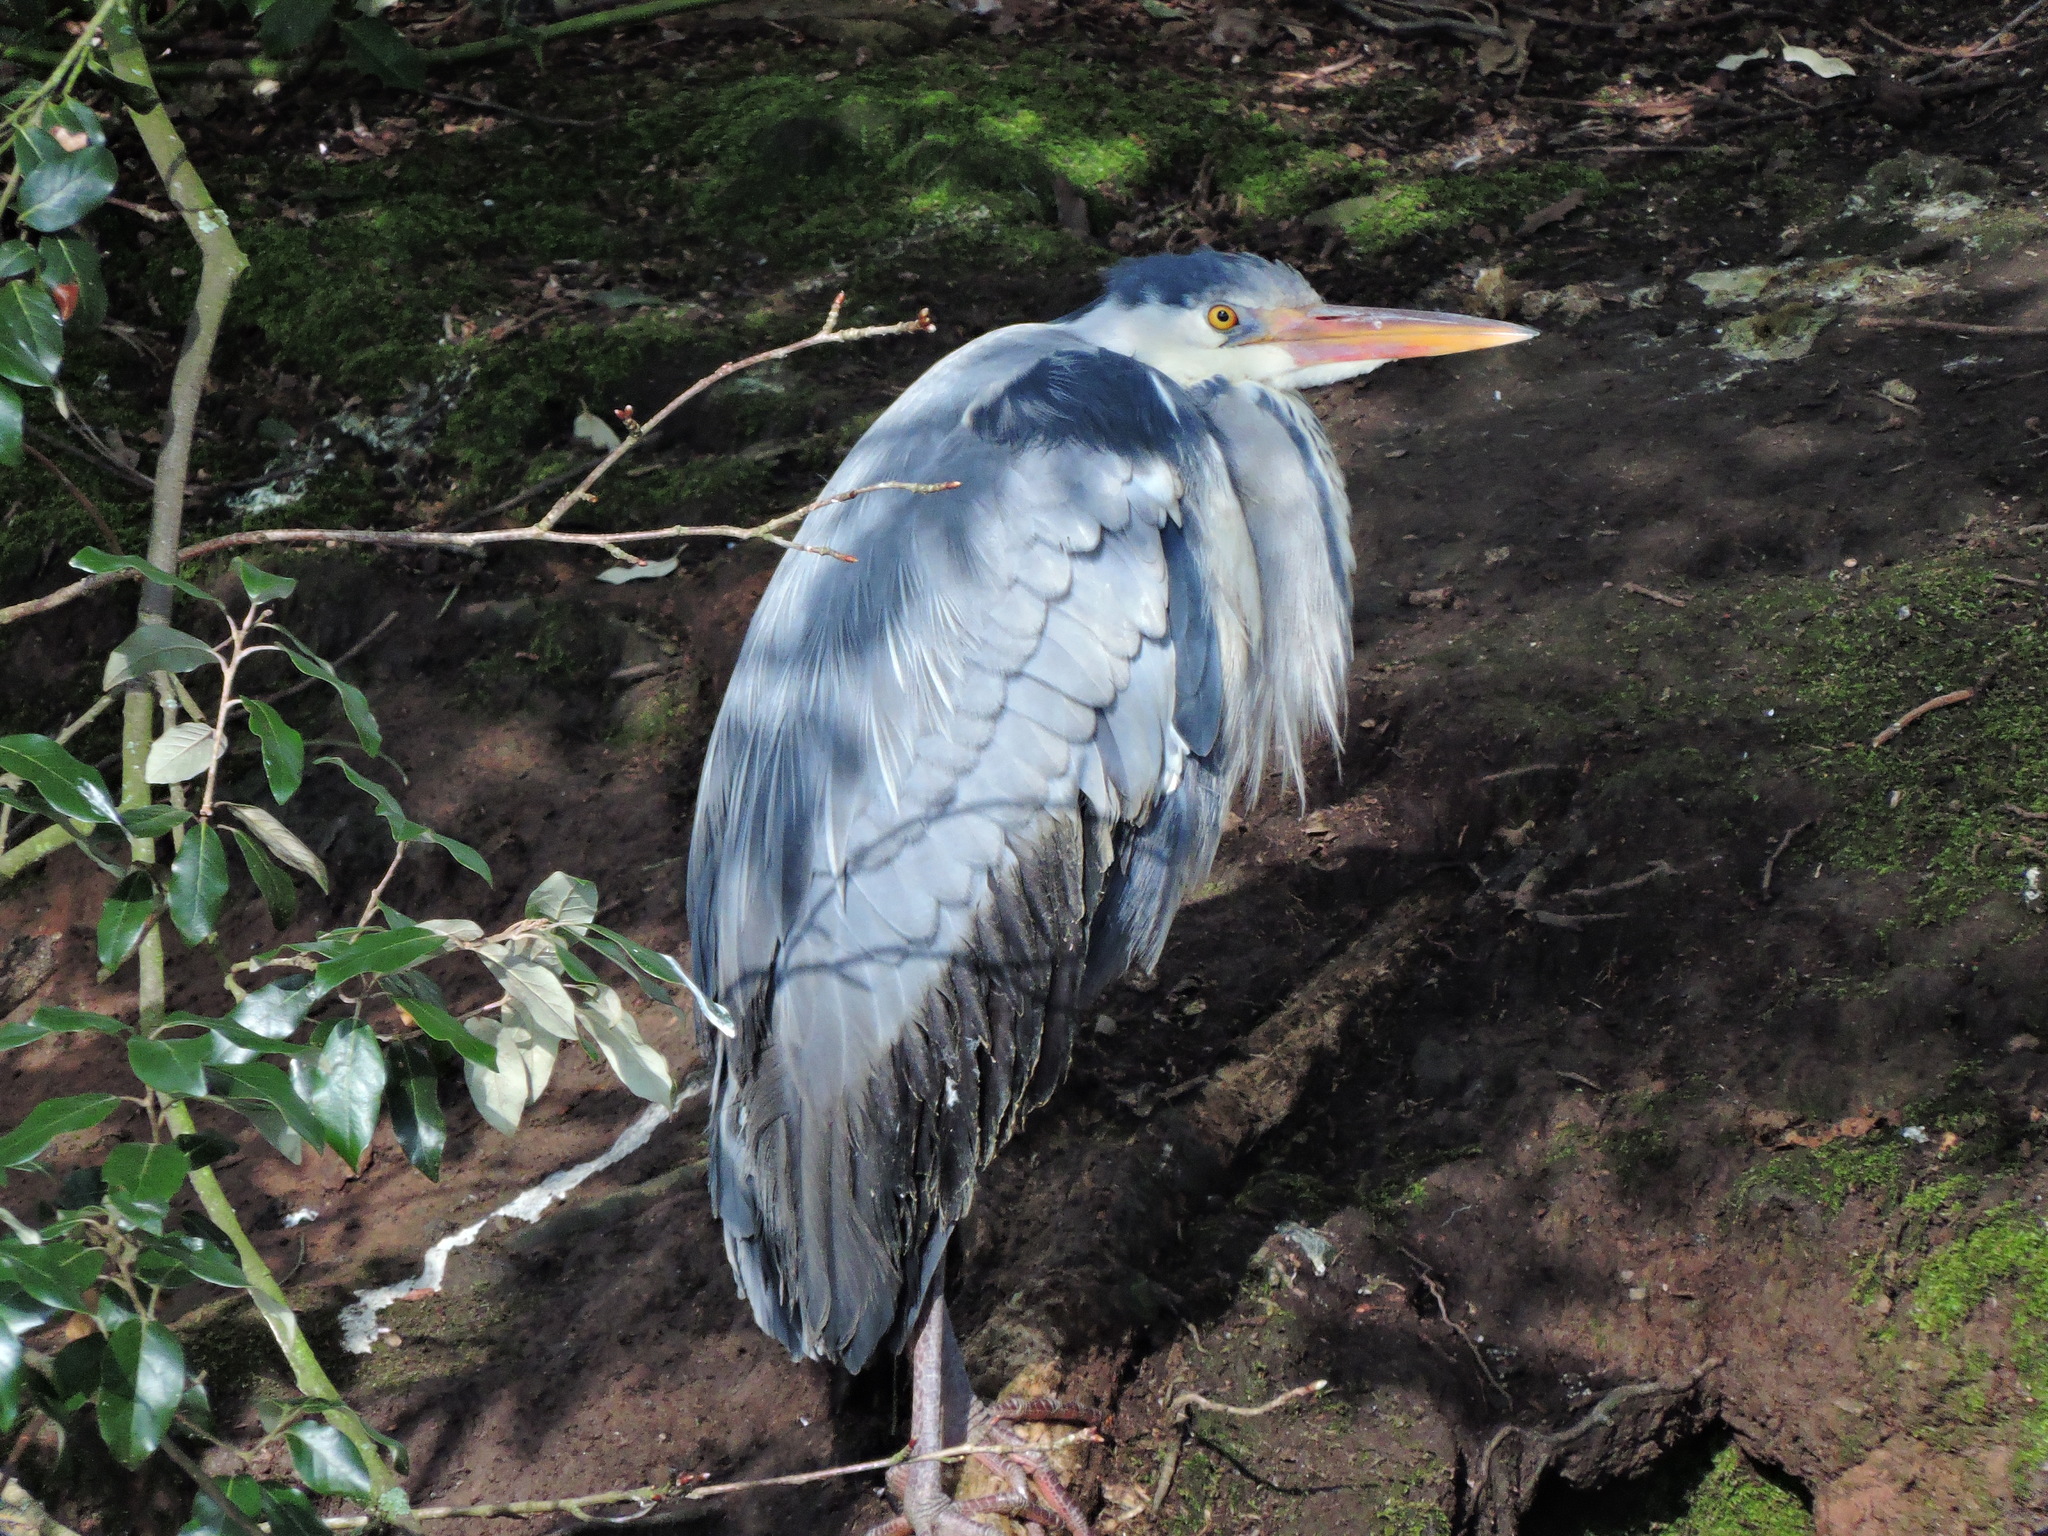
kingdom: Animalia
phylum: Chordata
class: Aves
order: Pelecaniformes
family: Ardeidae
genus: Ardea
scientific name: Ardea cinerea
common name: Grey heron
